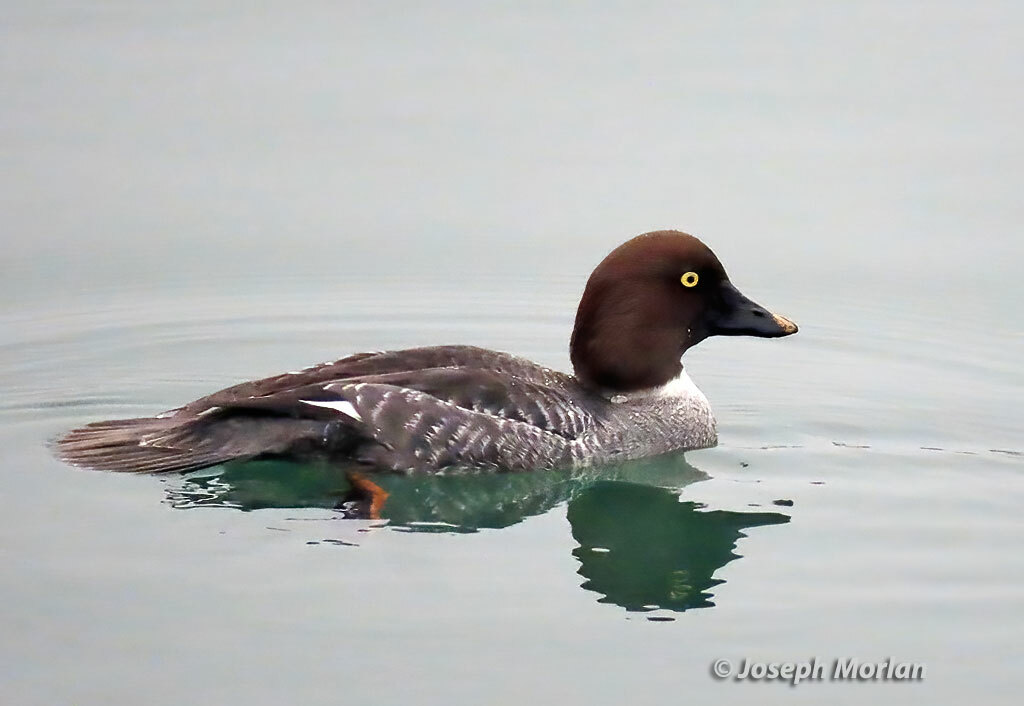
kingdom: Animalia
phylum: Chordata
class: Aves
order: Anseriformes
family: Anatidae
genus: Bucephala
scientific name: Bucephala clangula
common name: Common goldeneye
